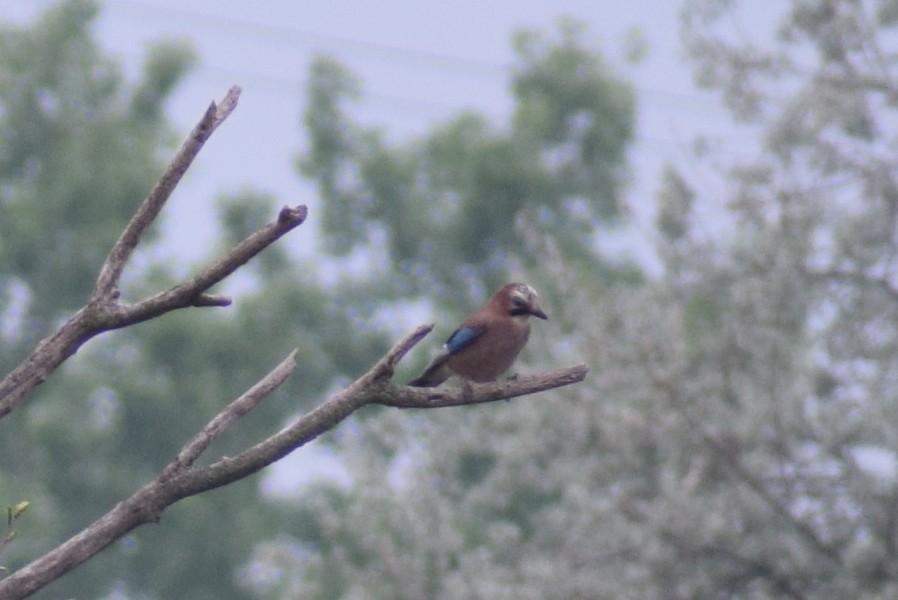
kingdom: Animalia
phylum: Chordata
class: Aves
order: Passeriformes
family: Corvidae
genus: Garrulus
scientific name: Garrulus glandarius
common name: Eurasian jay
